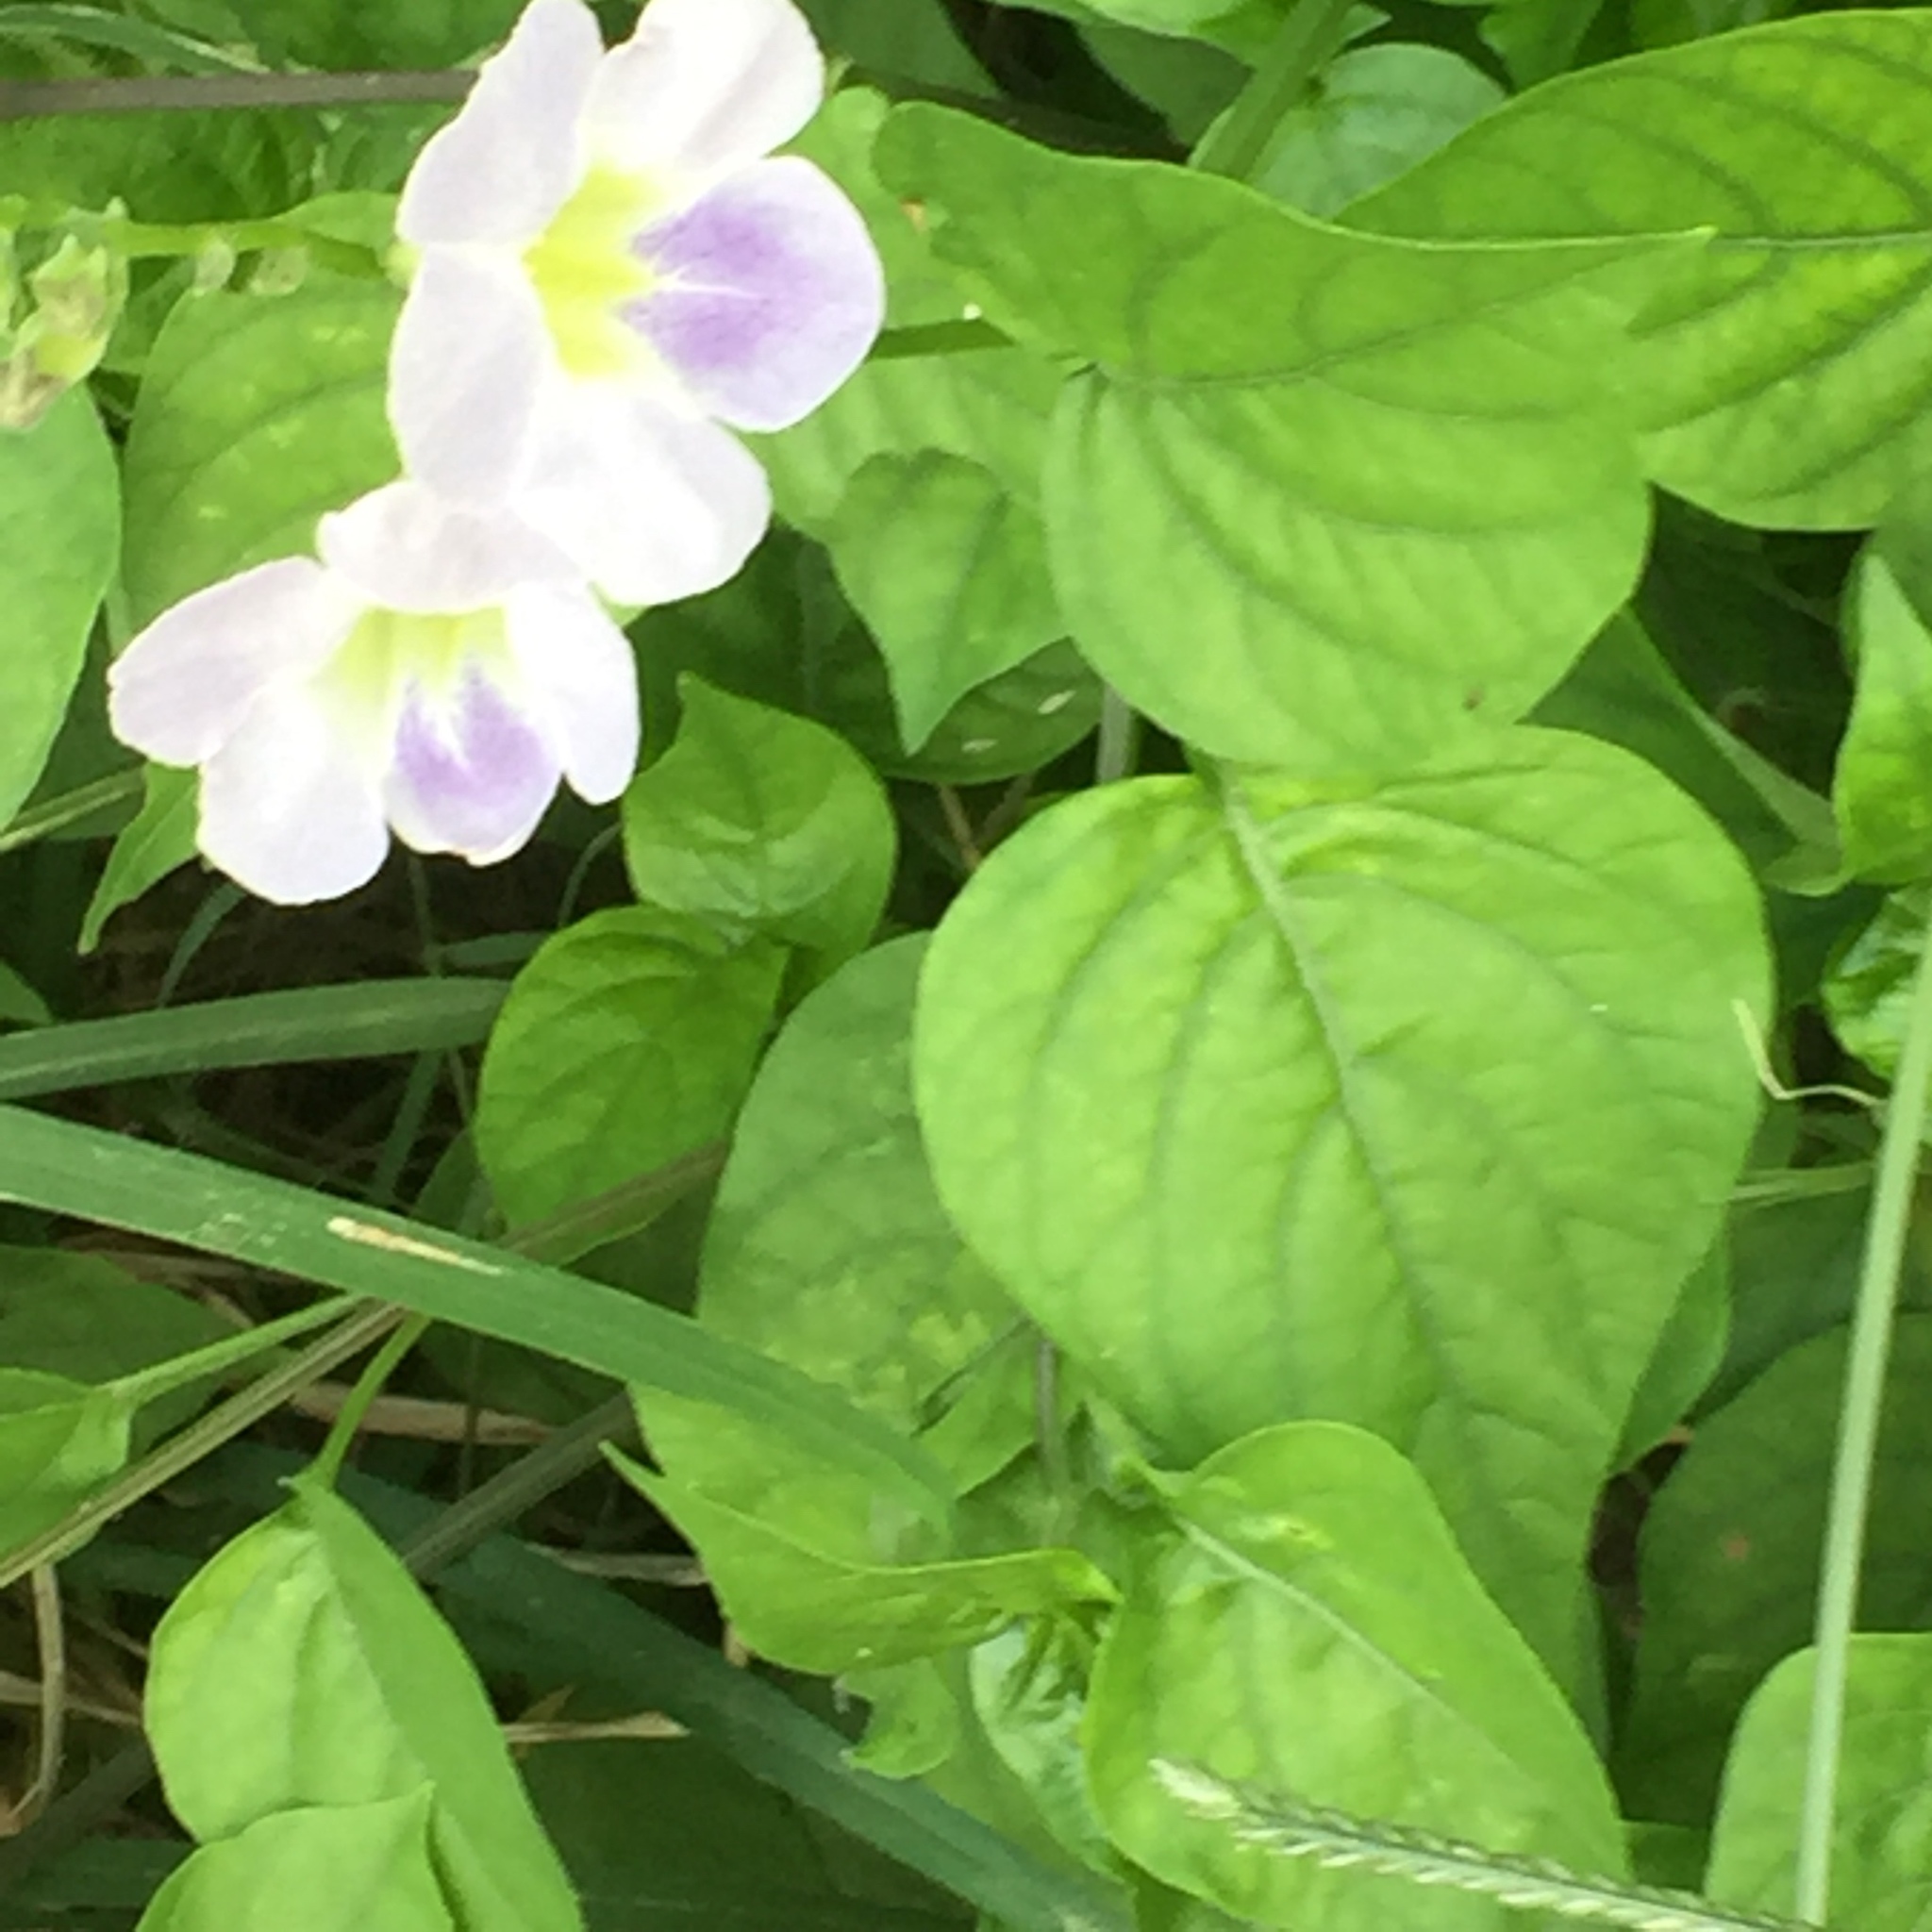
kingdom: Plantae
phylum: Tracheophyta
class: Magnoliopsida
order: Lamiales
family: Acanthaceae
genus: Asystasia
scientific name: Asystasia gangetica
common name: Chinese violet
